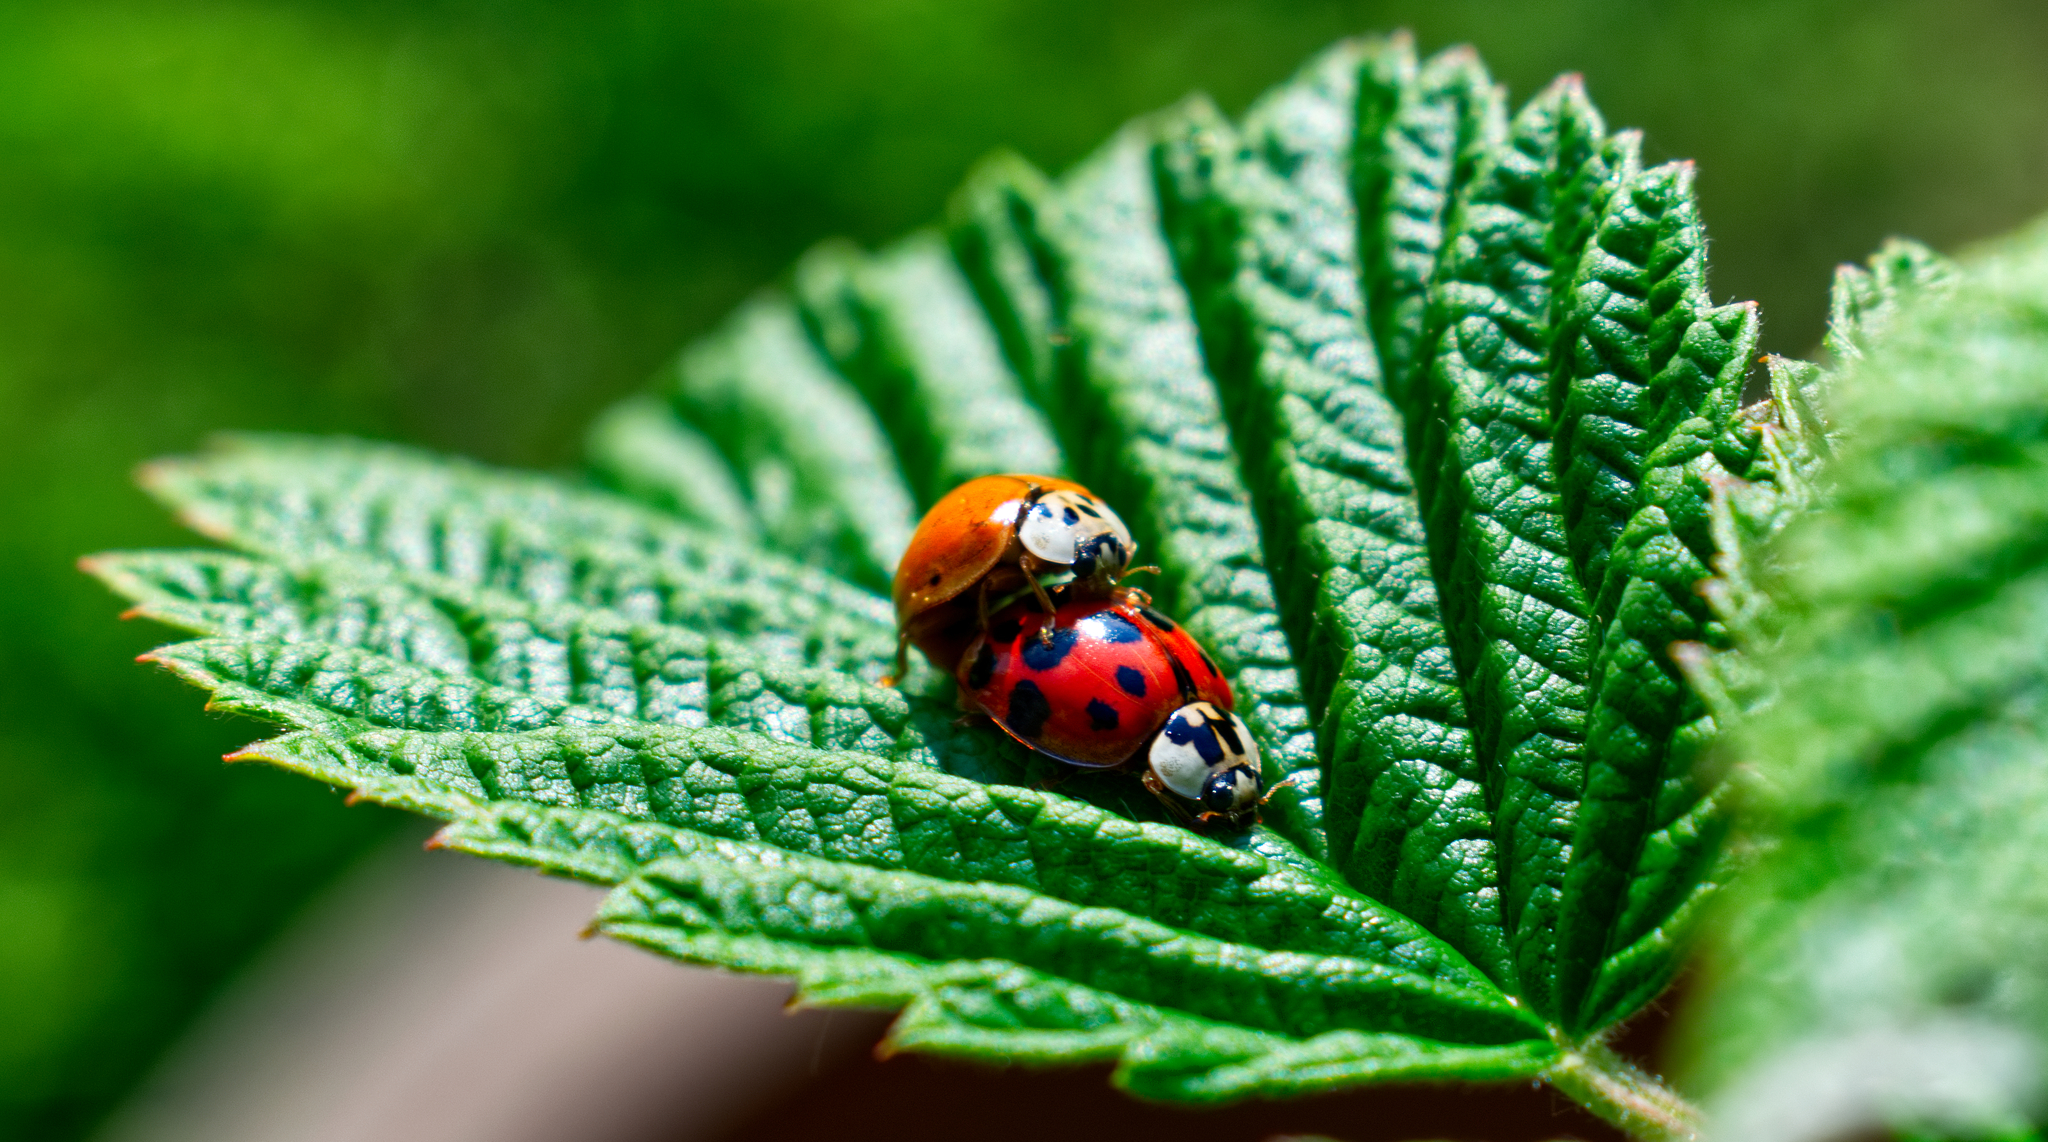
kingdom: Animalia
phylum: Arthropoda
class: Insecta
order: Coleoptera
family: Coccinellidae
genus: Harmonia
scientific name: Harmonia axyridis
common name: Harlequin ladybird
